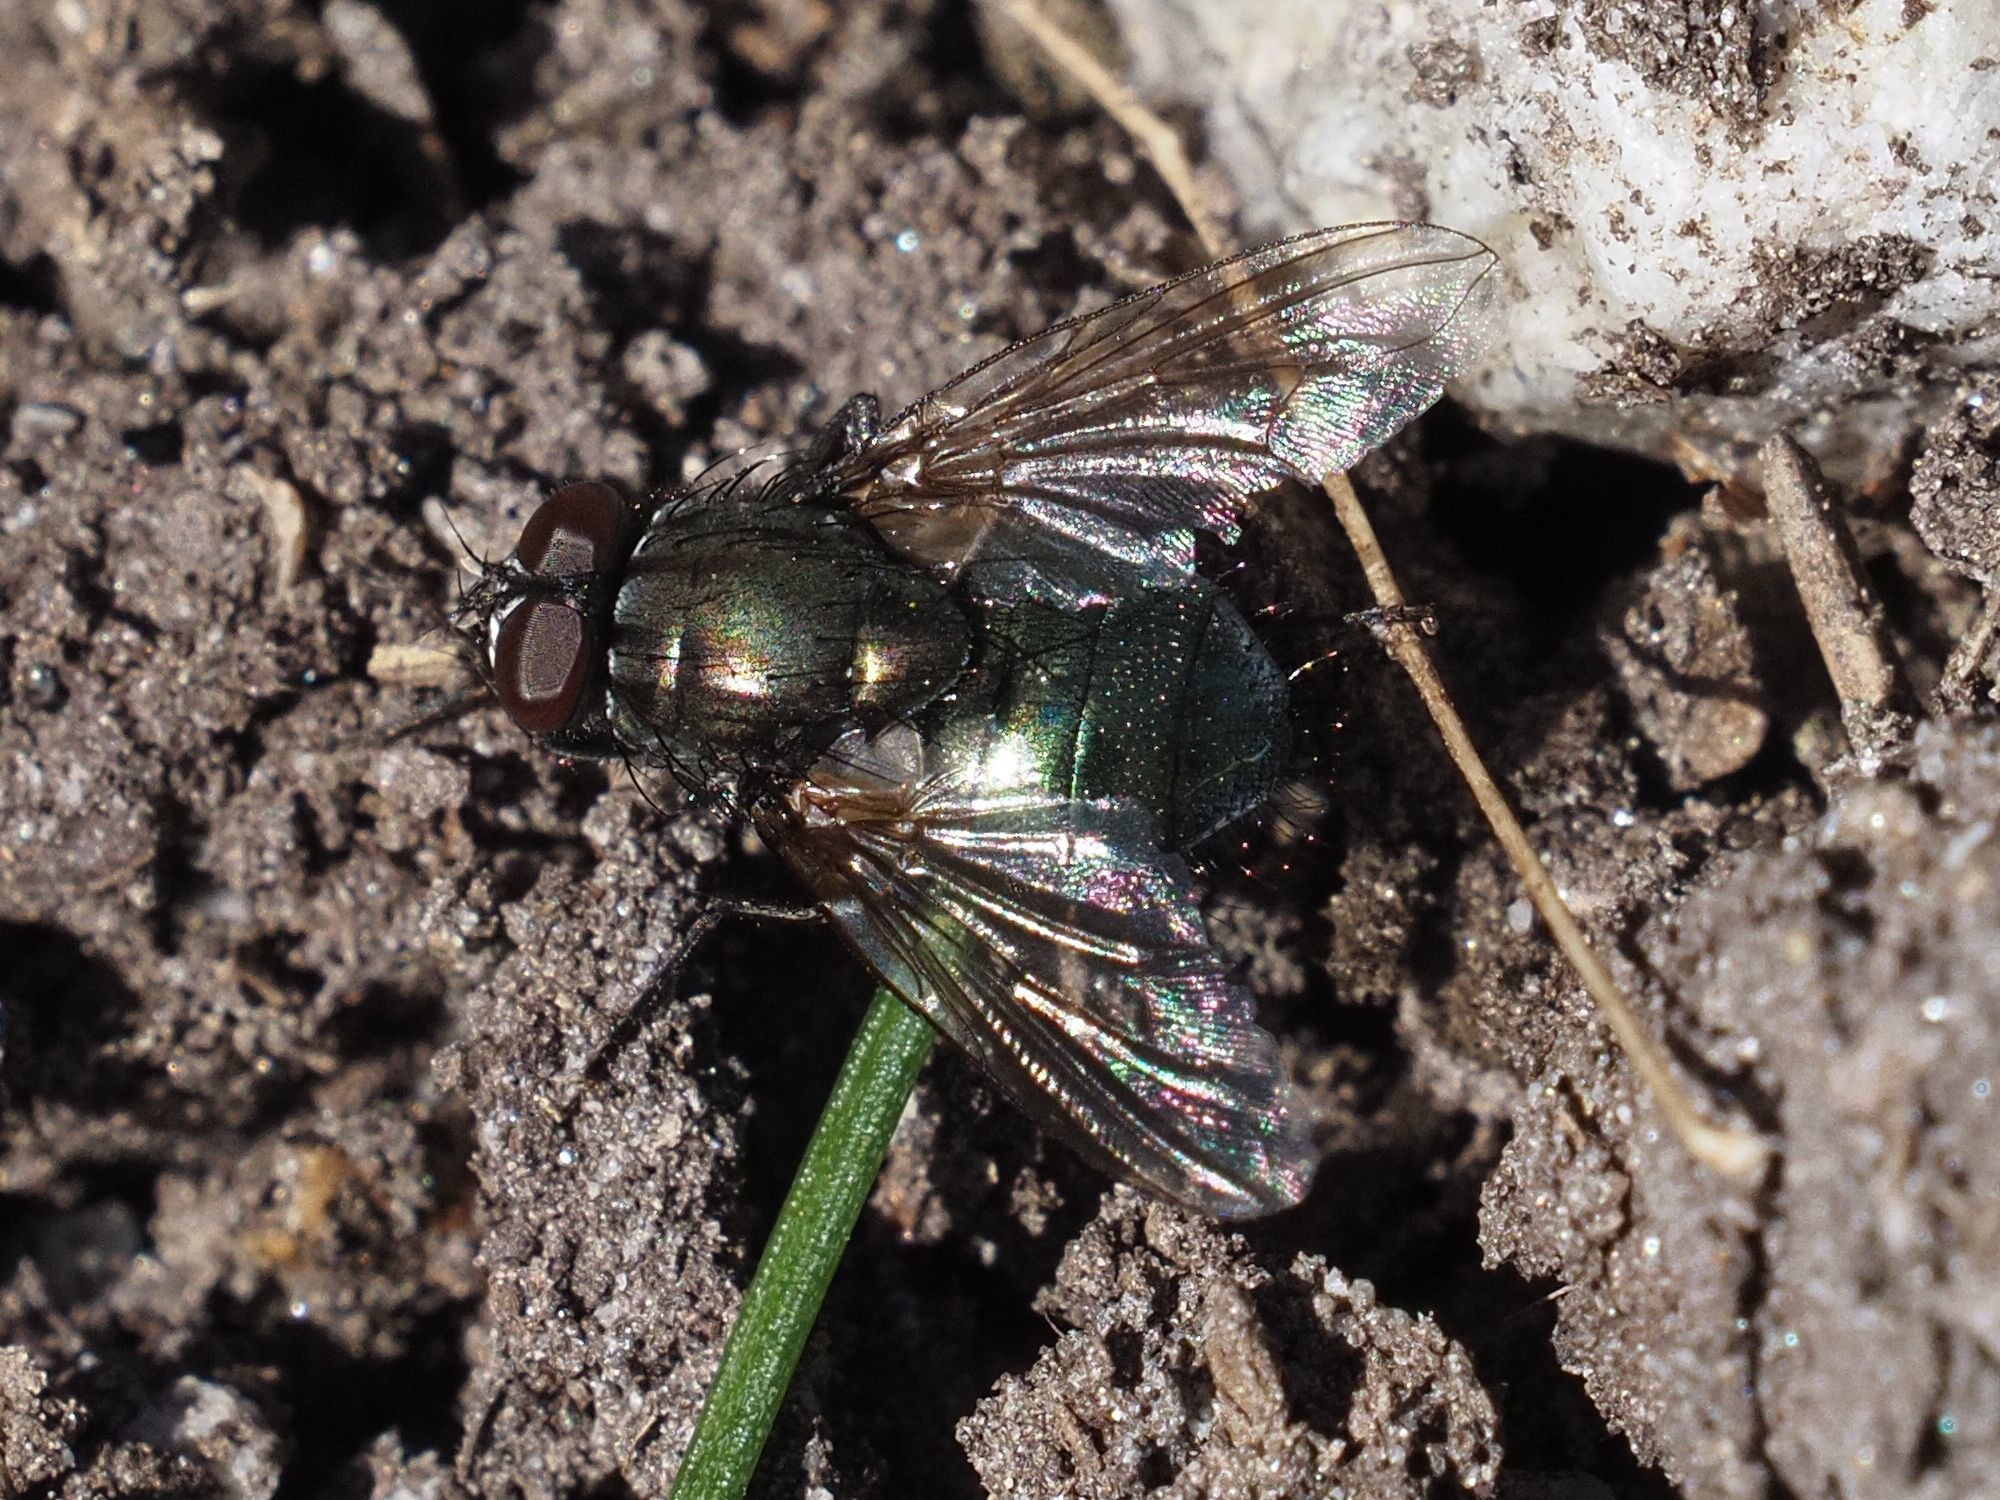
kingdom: Animalia
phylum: Arthropoda
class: Insecta
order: Diptera
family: Muscidae
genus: Dasyphora
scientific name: Dasyphora cyanella
